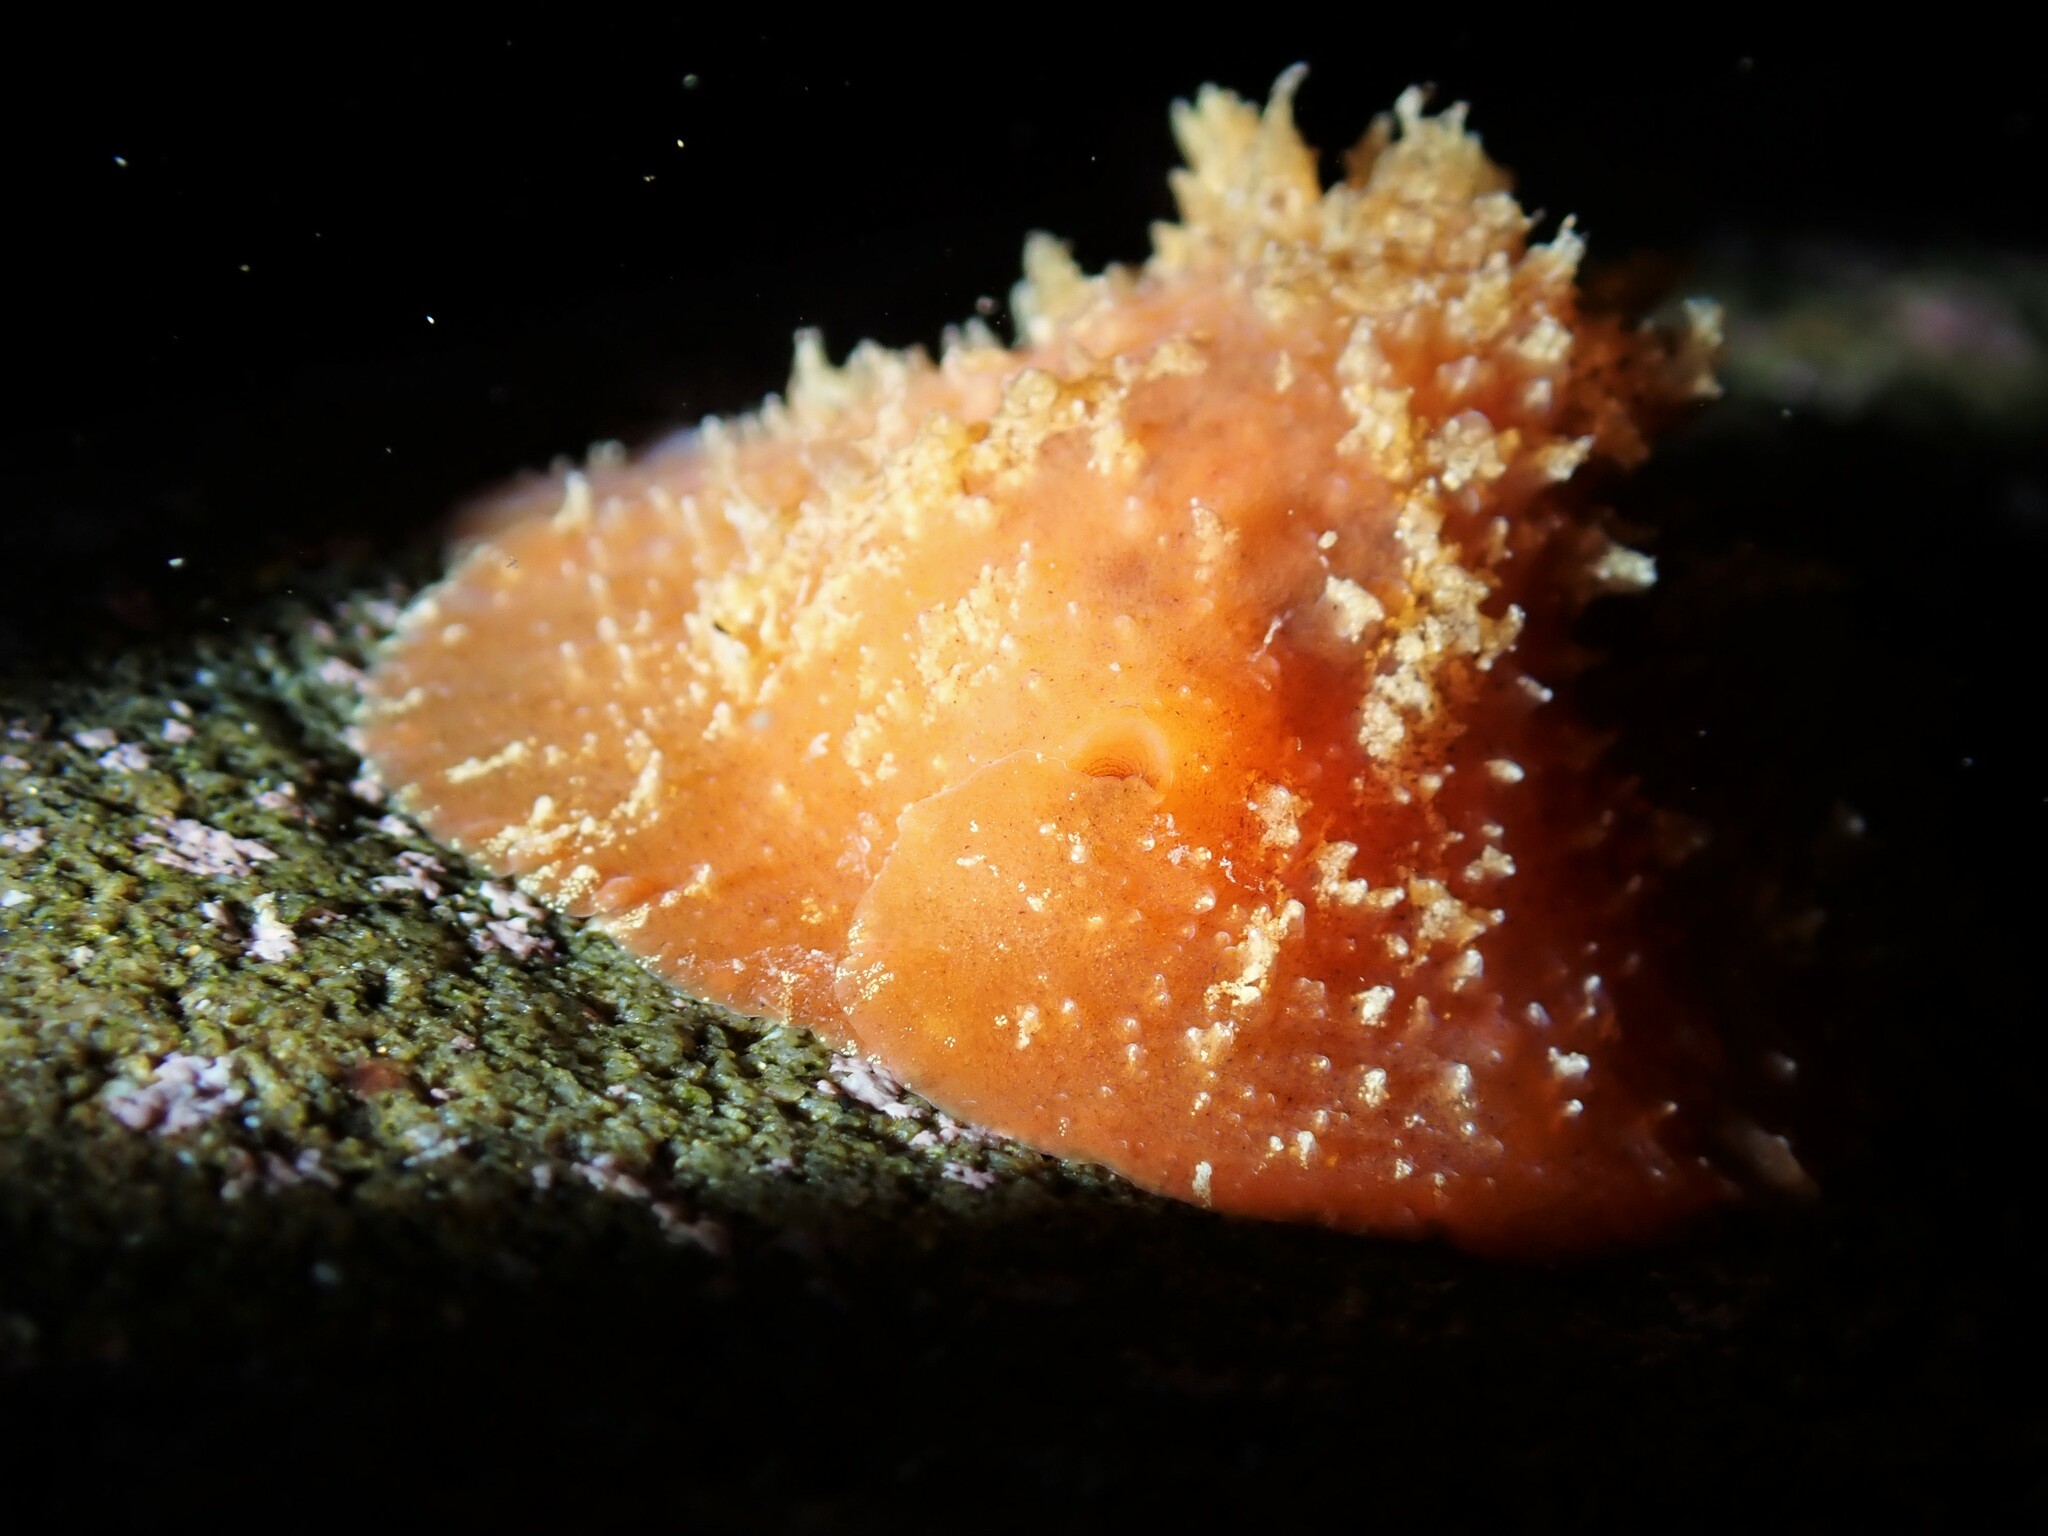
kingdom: Animalia
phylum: Mollusca
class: Gastropoda
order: Littorinimorpha
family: Velutinidae
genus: Lamellaria
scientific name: Lamellaria ophione
